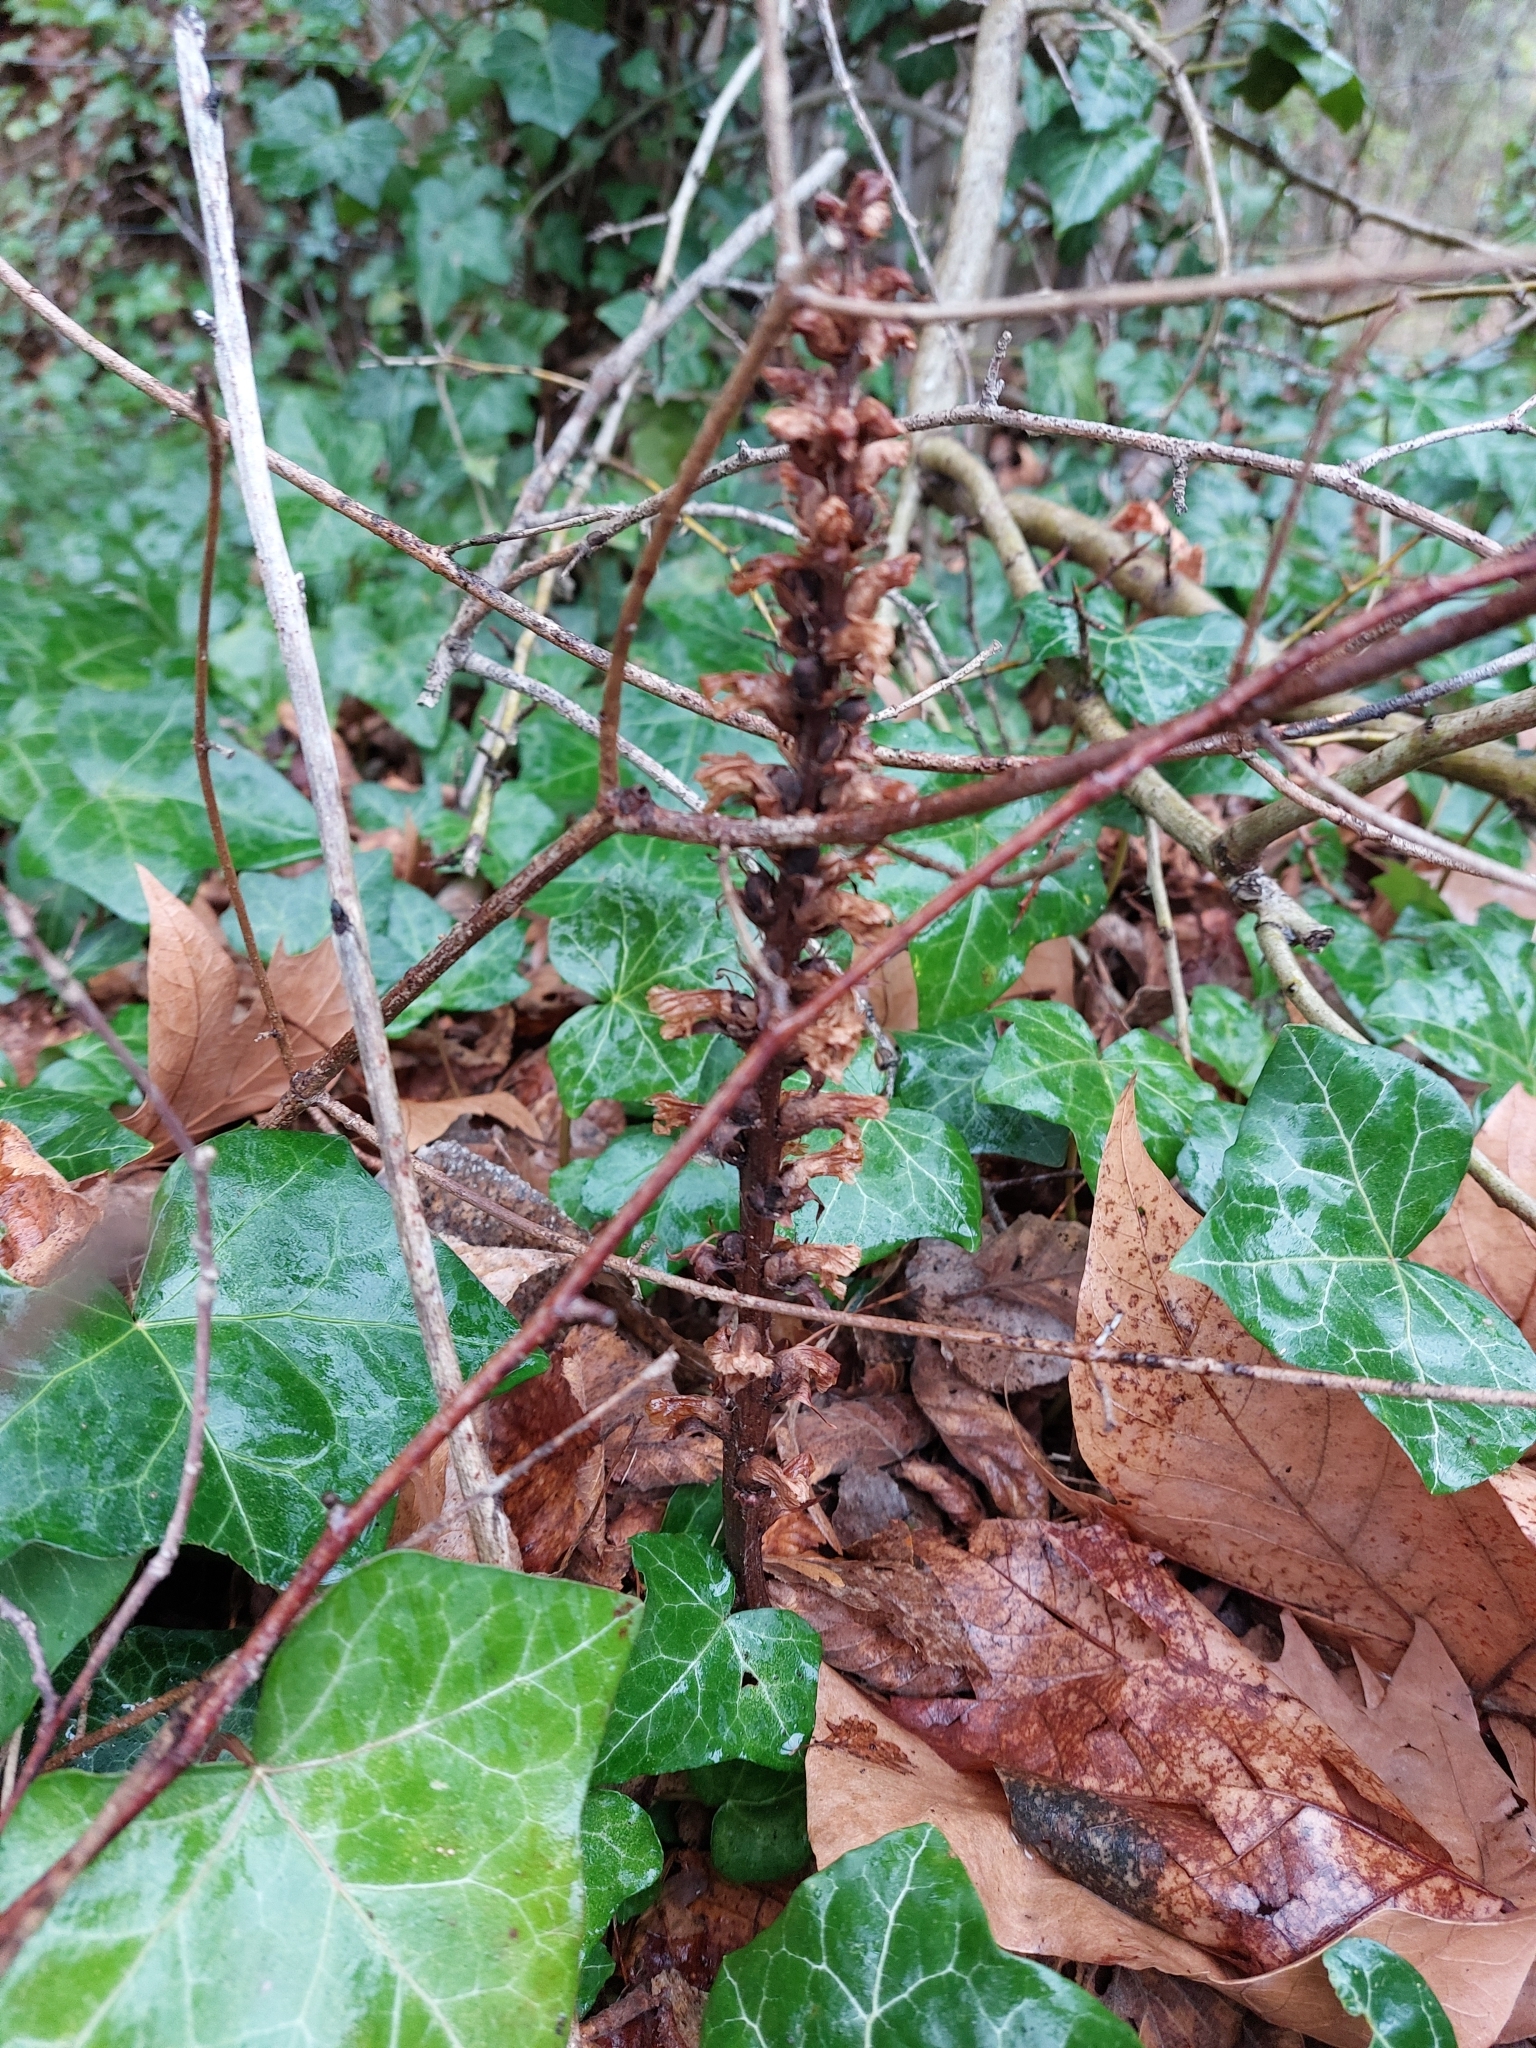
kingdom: Plantae
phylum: Tracheophyta
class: Magnoliopsida
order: Lamiales
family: Orobanchaceae
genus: Orobanche
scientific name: Orobanche hederae
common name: Ivy broomrape
